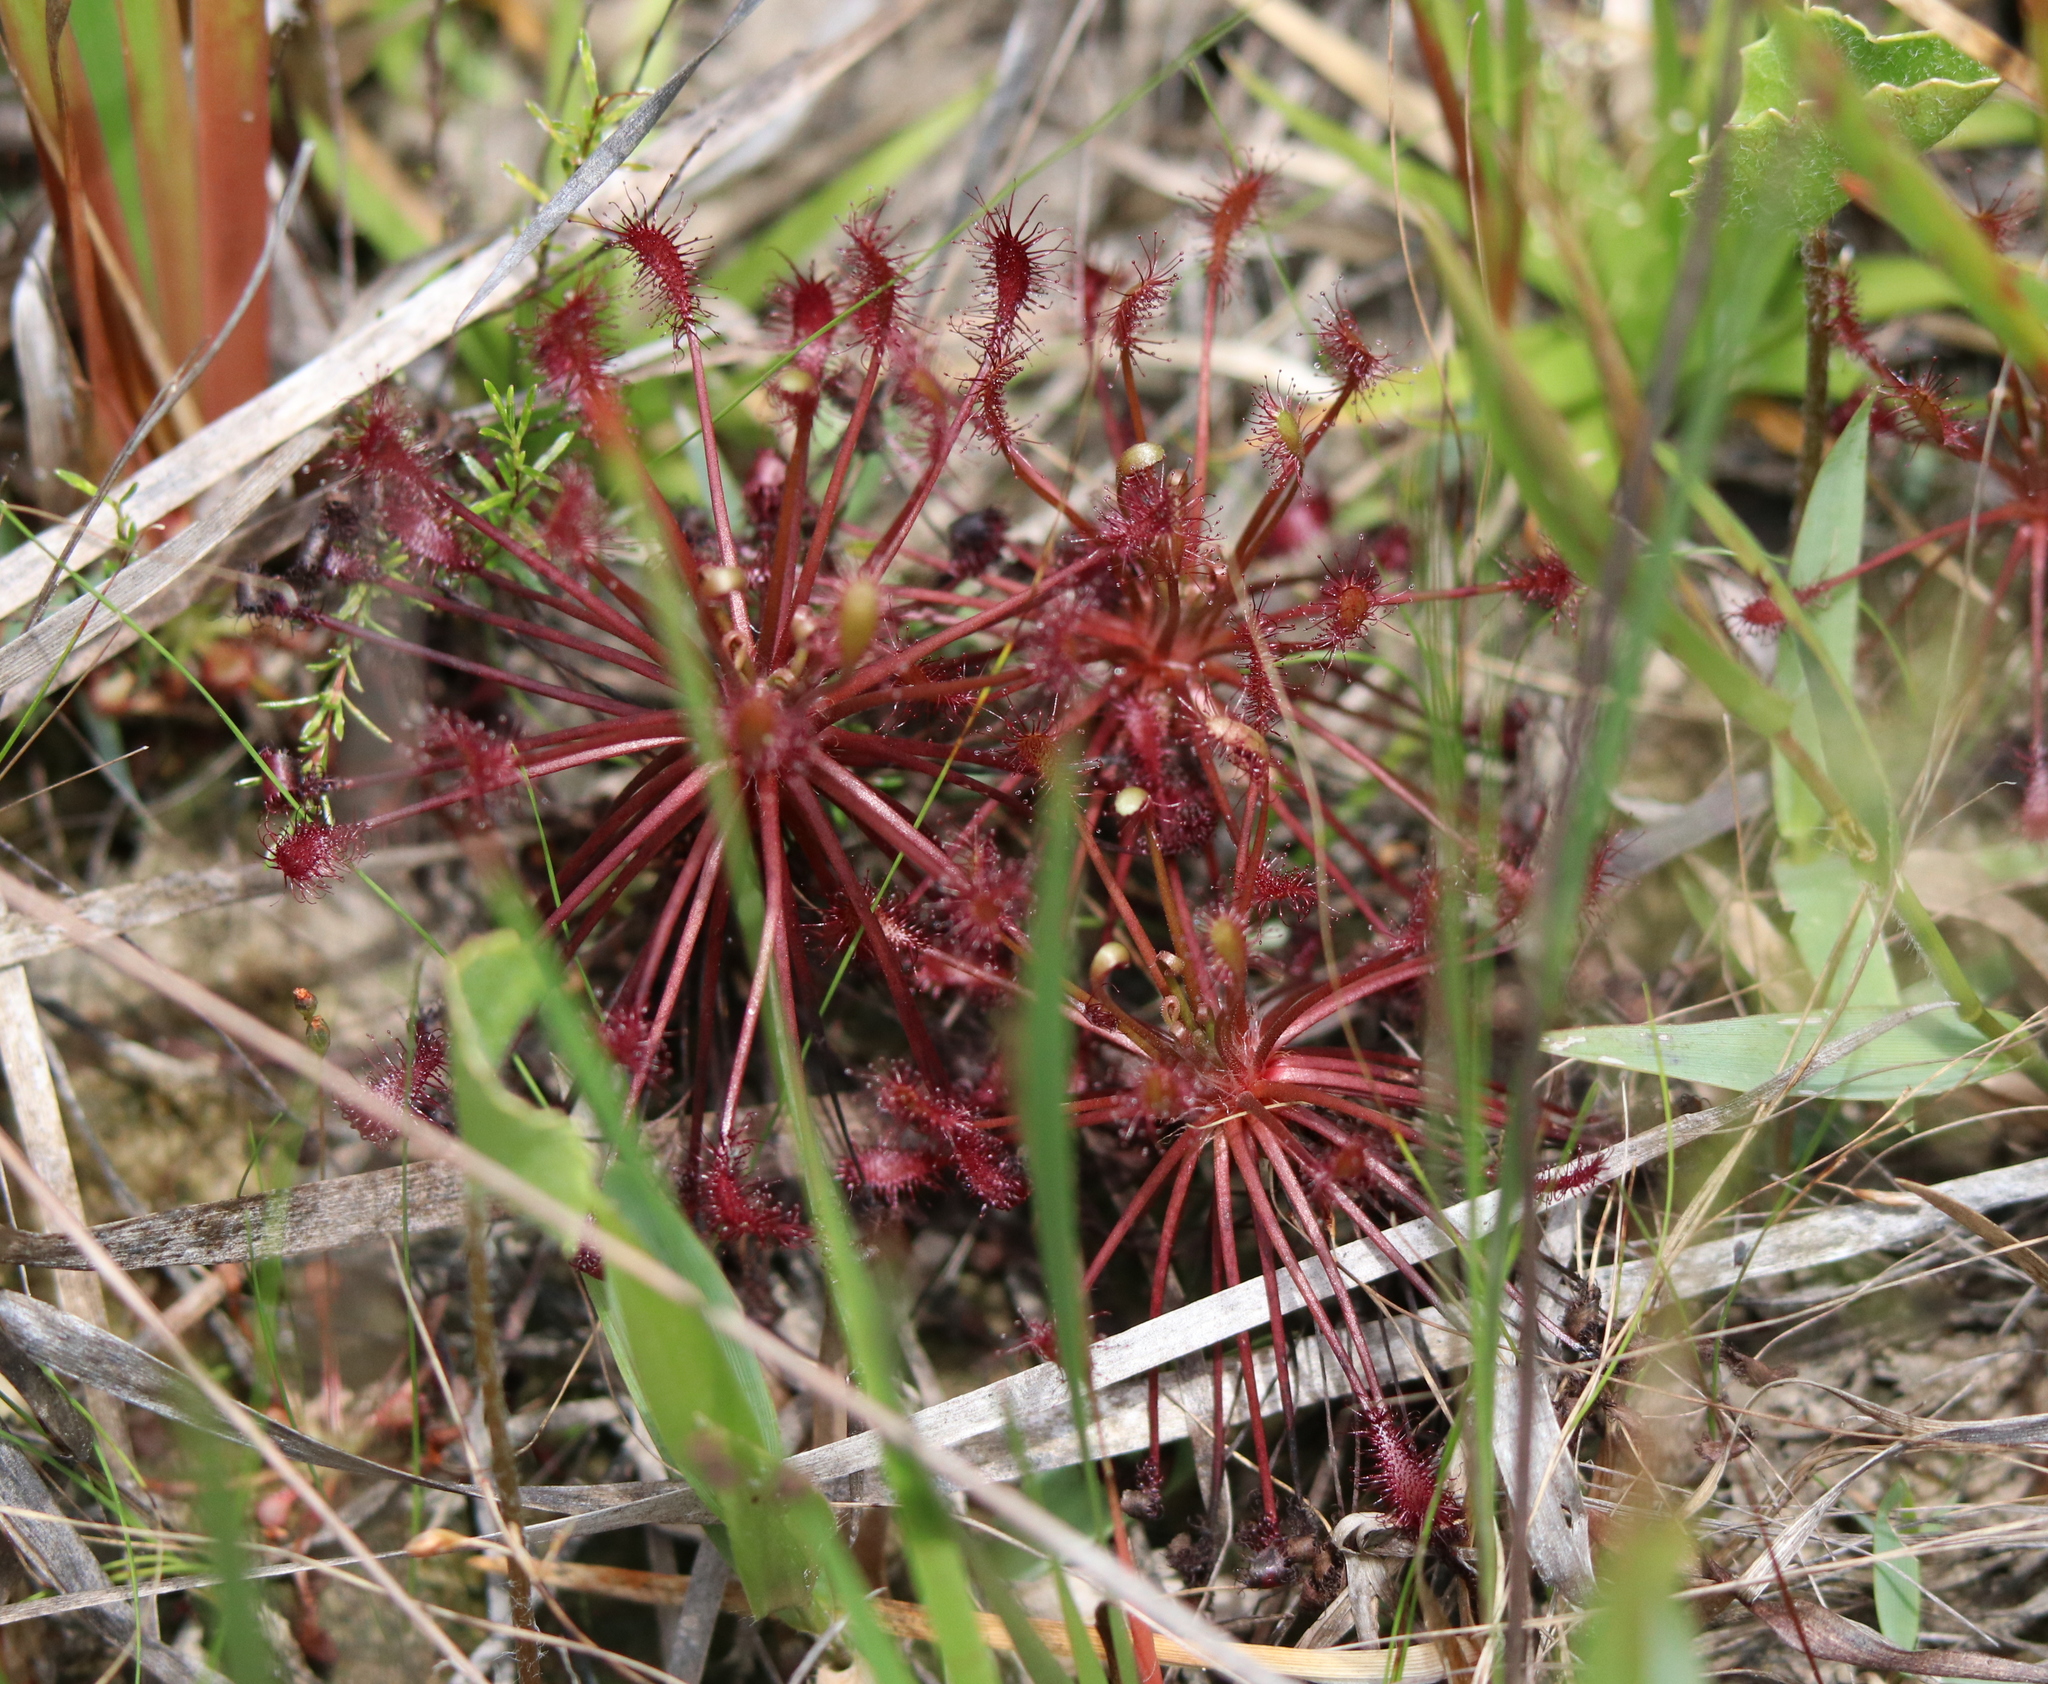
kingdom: Plantae
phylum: Tracheophyta
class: Magnoliopsida
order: Caryophyllales
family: Droseraceae
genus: Drosera
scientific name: Drosera intermedia
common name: Oblong-leaved sundew
